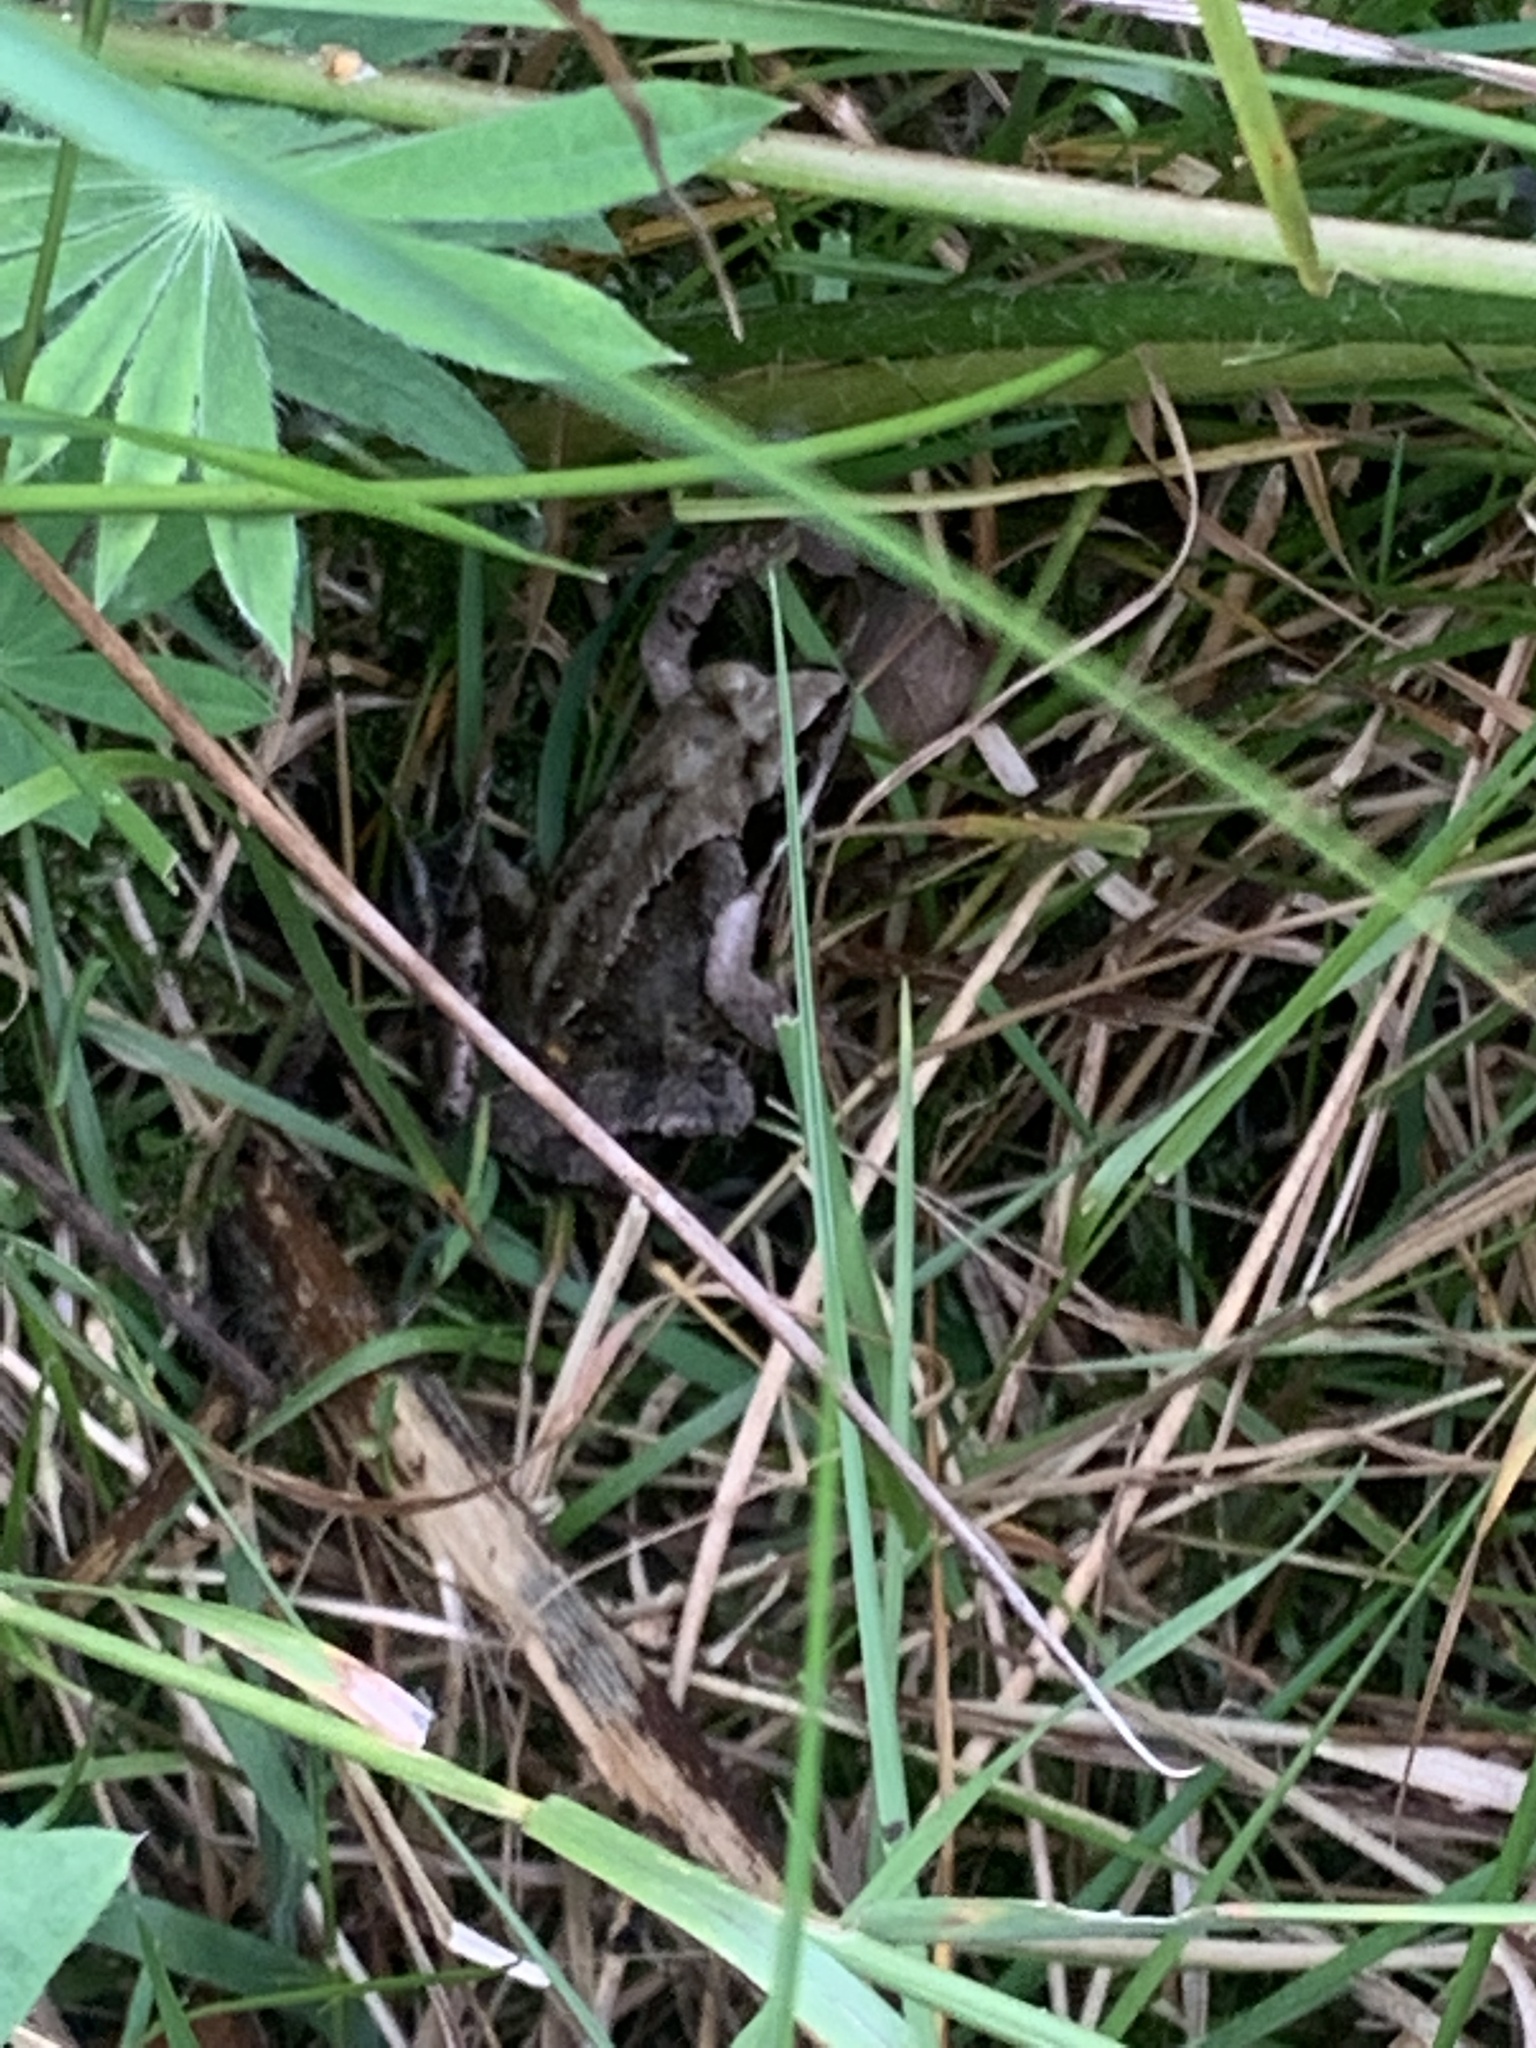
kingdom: Animalia
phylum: Chordata
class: Amphibia
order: Anura
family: Ranidae
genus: Rana
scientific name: Rana arvalis
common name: Moor frog
